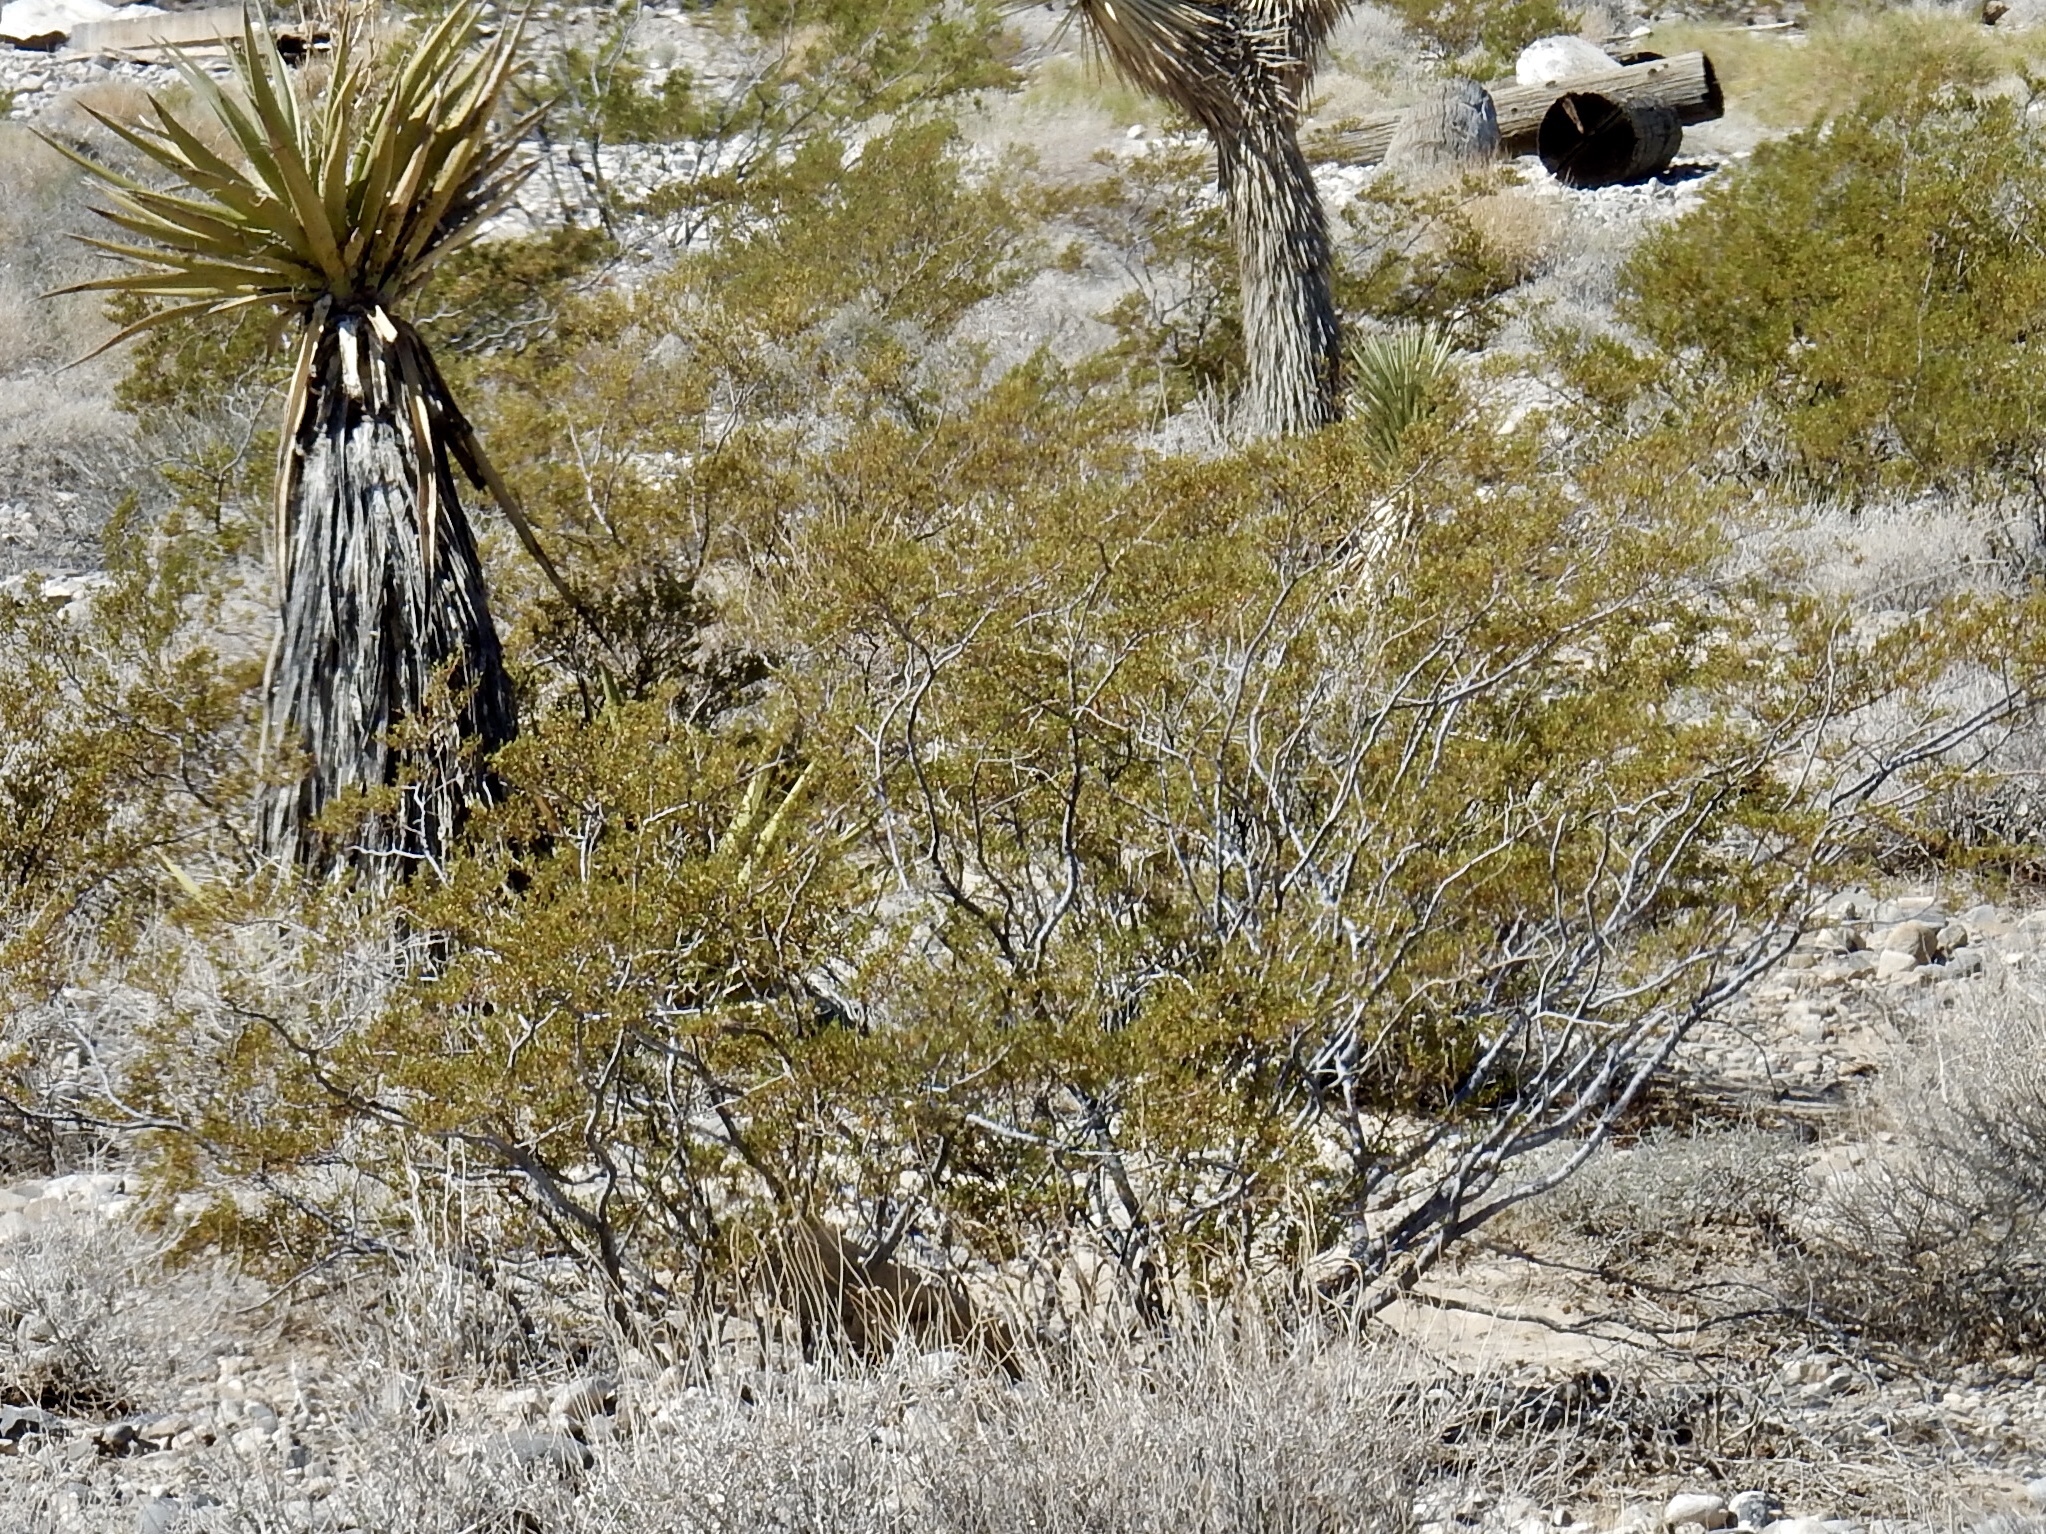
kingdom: Plantae
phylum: Tracheophyta
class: Magnoliopsida
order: Zygophyllales
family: Zygophyllaceae
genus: Larrea
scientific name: Larrea tridentata
